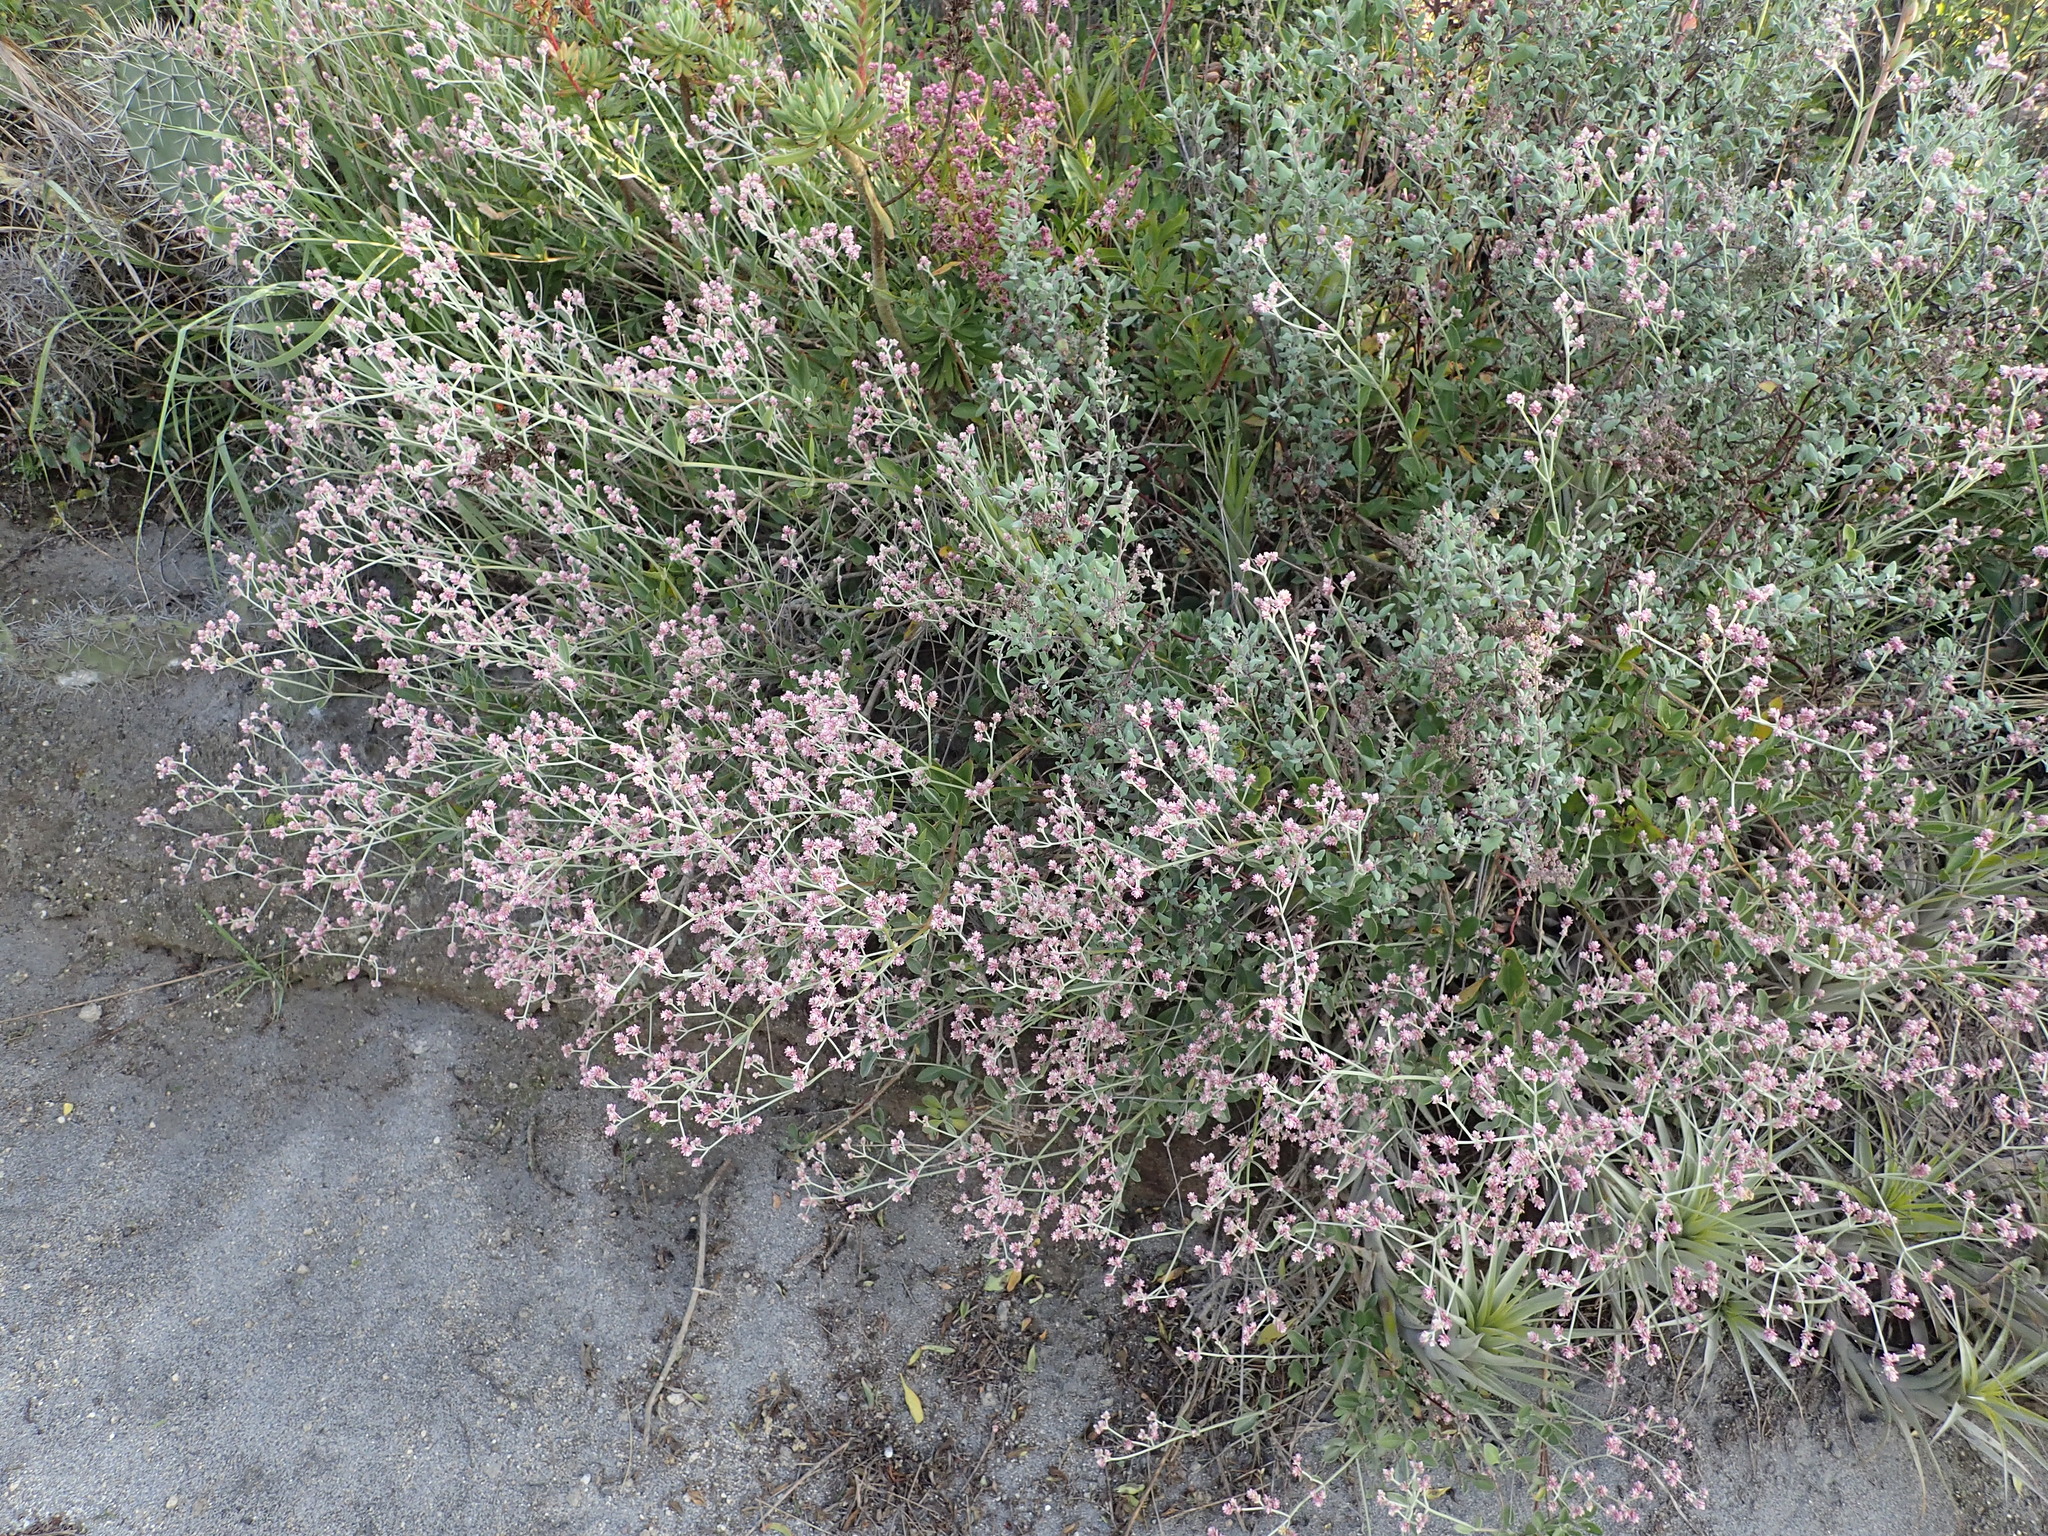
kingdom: Plantae
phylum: Tracheophyta
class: Magnoliopsida
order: Caryophyllales
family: Amaranthaceae
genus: Alternanthera
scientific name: Alternanthera porrigens
